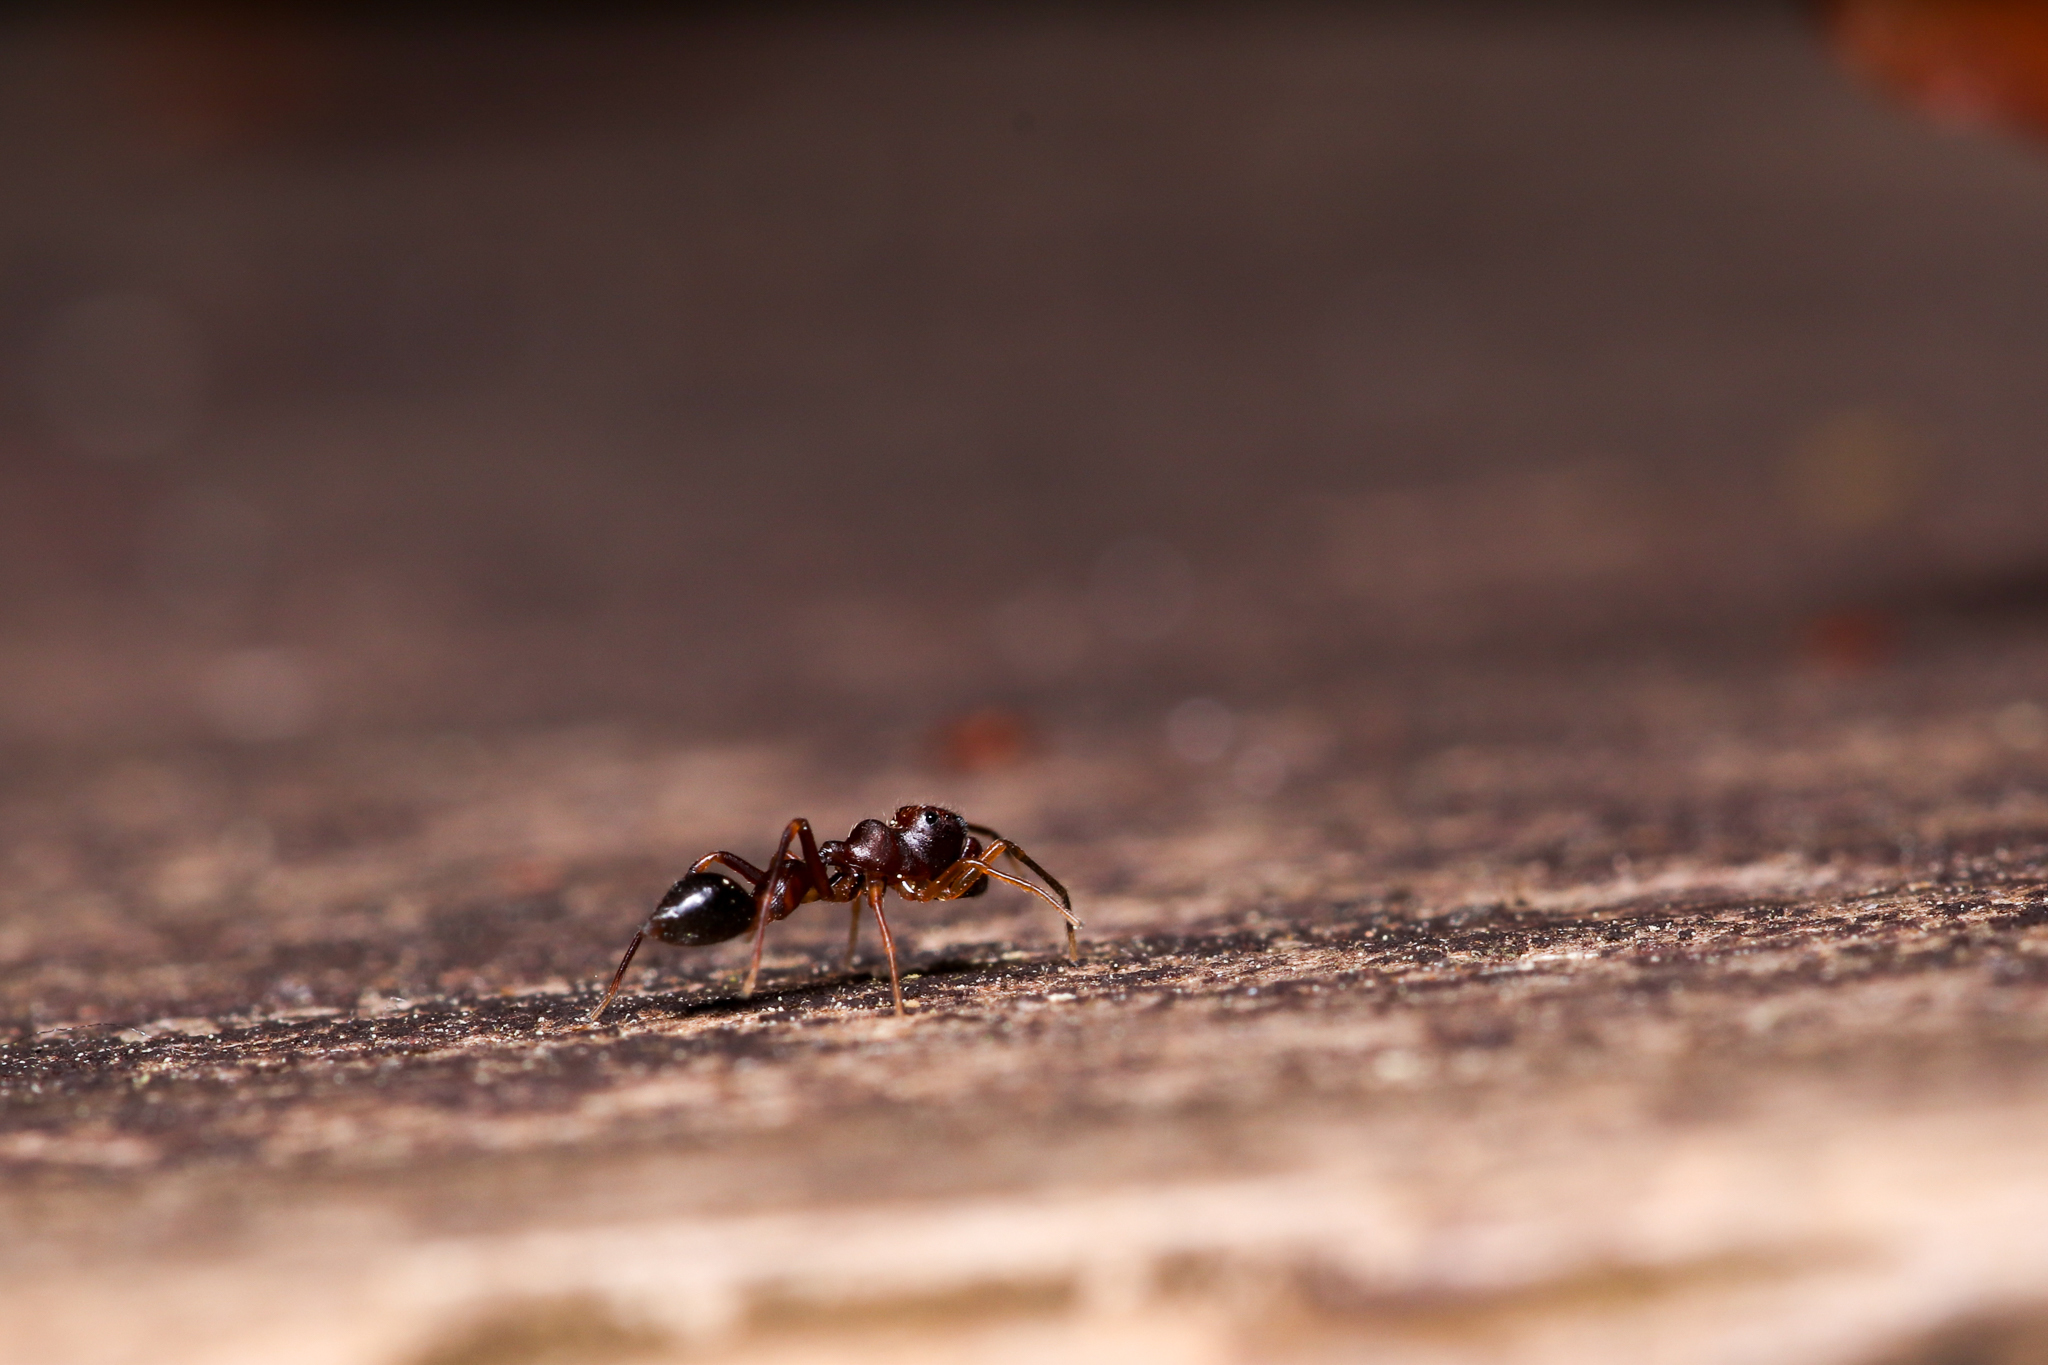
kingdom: Animalia
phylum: Arthropoda
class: Arachnida
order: Araneae
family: Salticidae
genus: Synemosyna
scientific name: Synemosyna formica
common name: Slender ant-mimic jumping spider
